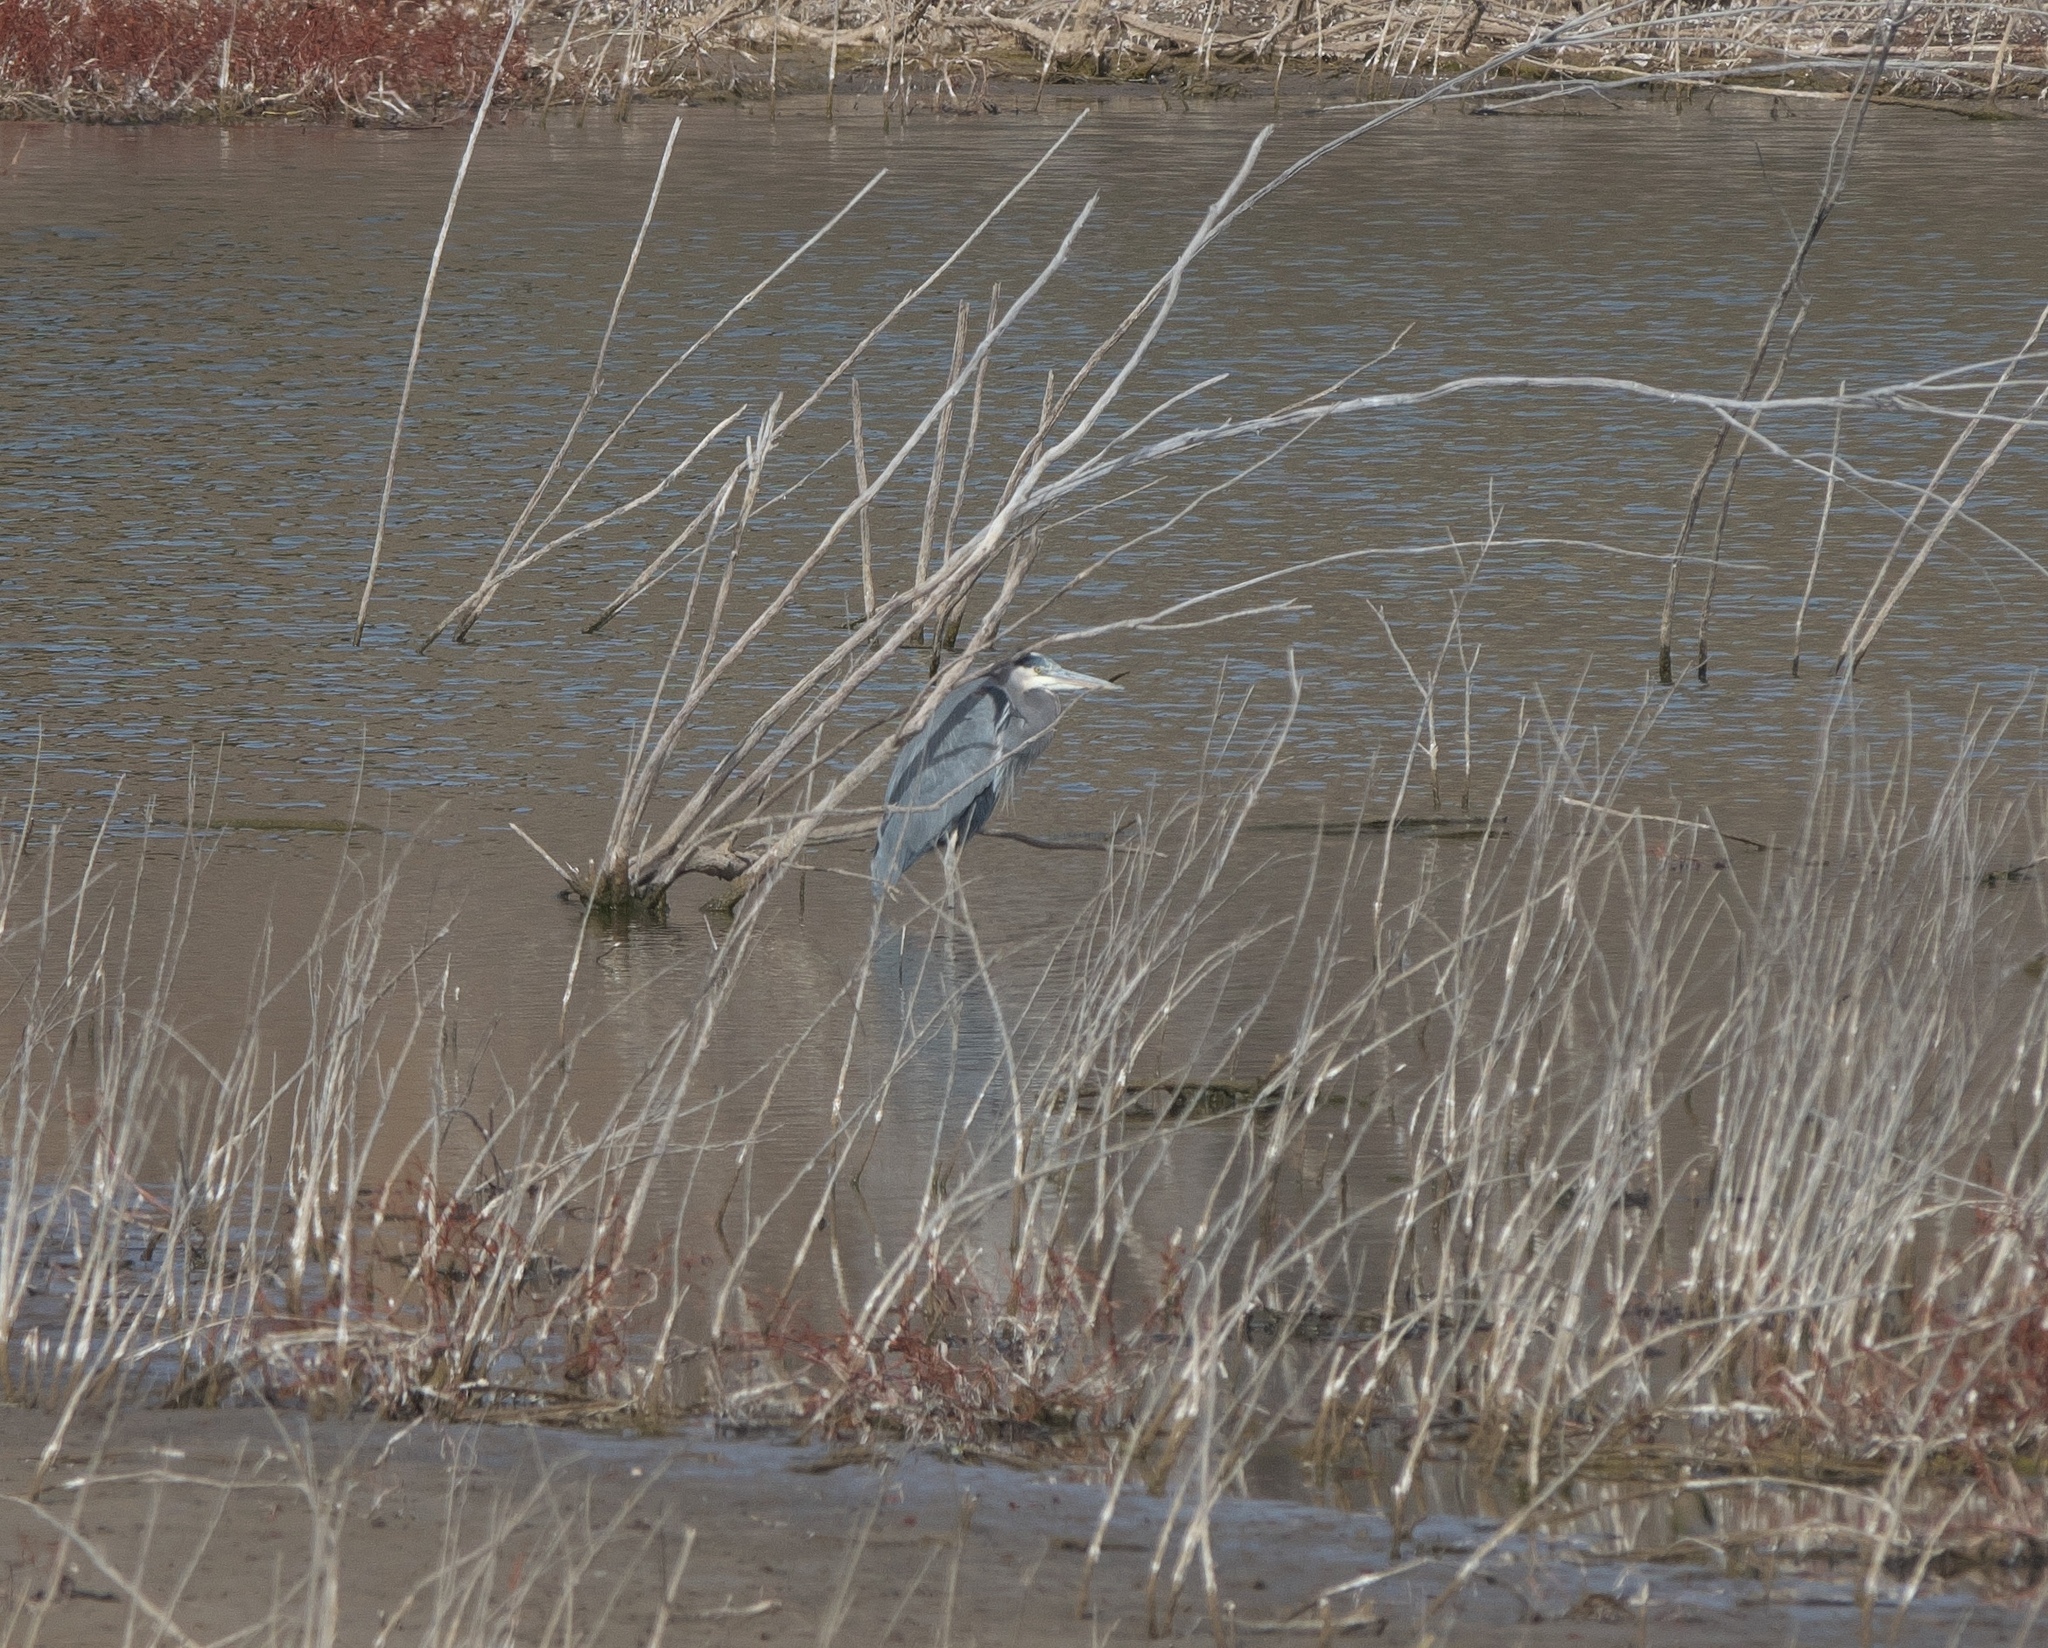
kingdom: Animalia
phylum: Chordata
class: Aves
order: Pelecaniformes
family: Ardeidae
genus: Ardea
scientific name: Ardea herodias
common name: Great blue heron
